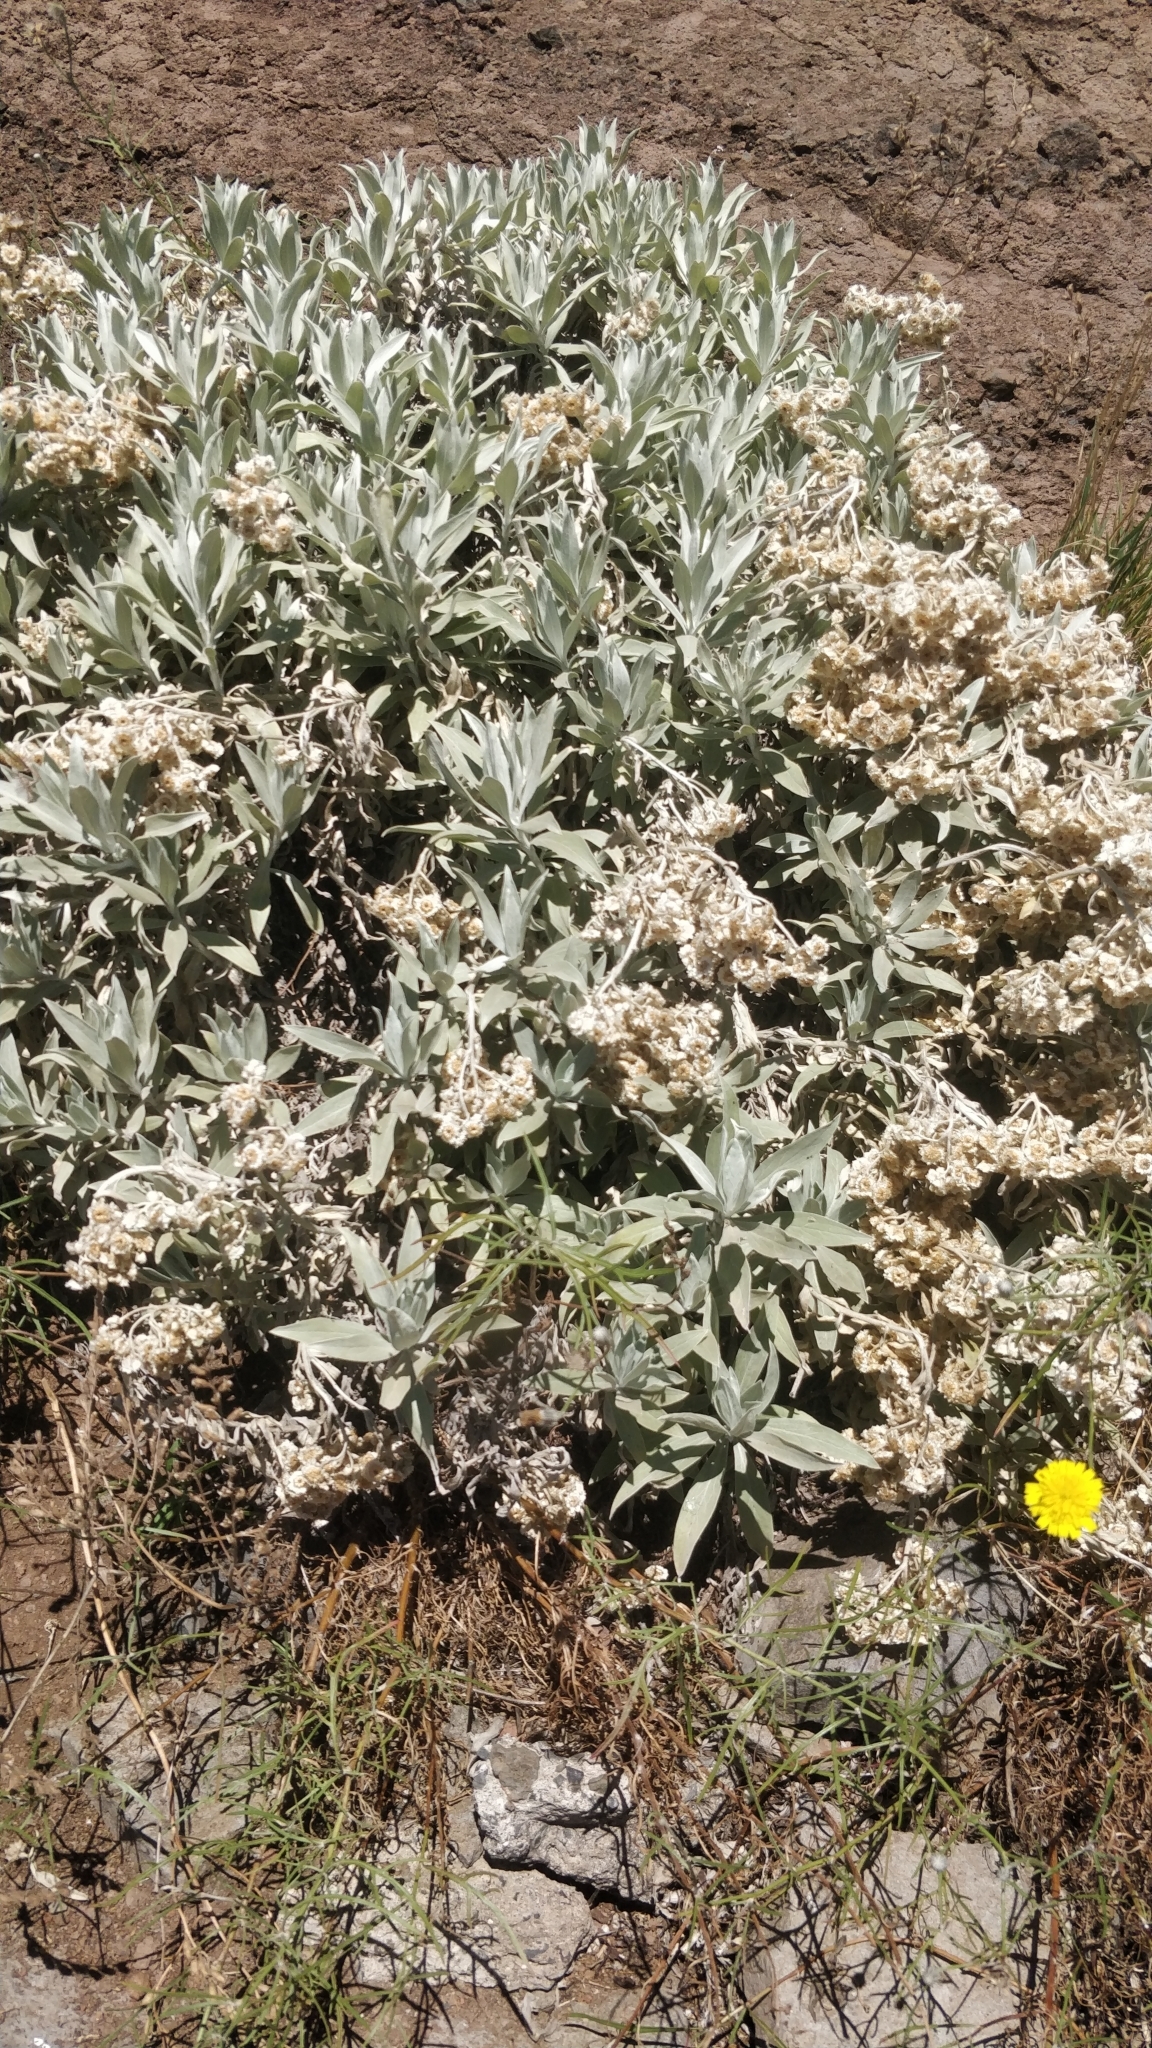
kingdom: Plantae
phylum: Tracheophyta
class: Magnoliopsida
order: Asterales
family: Asteraceae
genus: Helichrysum
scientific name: Helichrysum melaleucum
